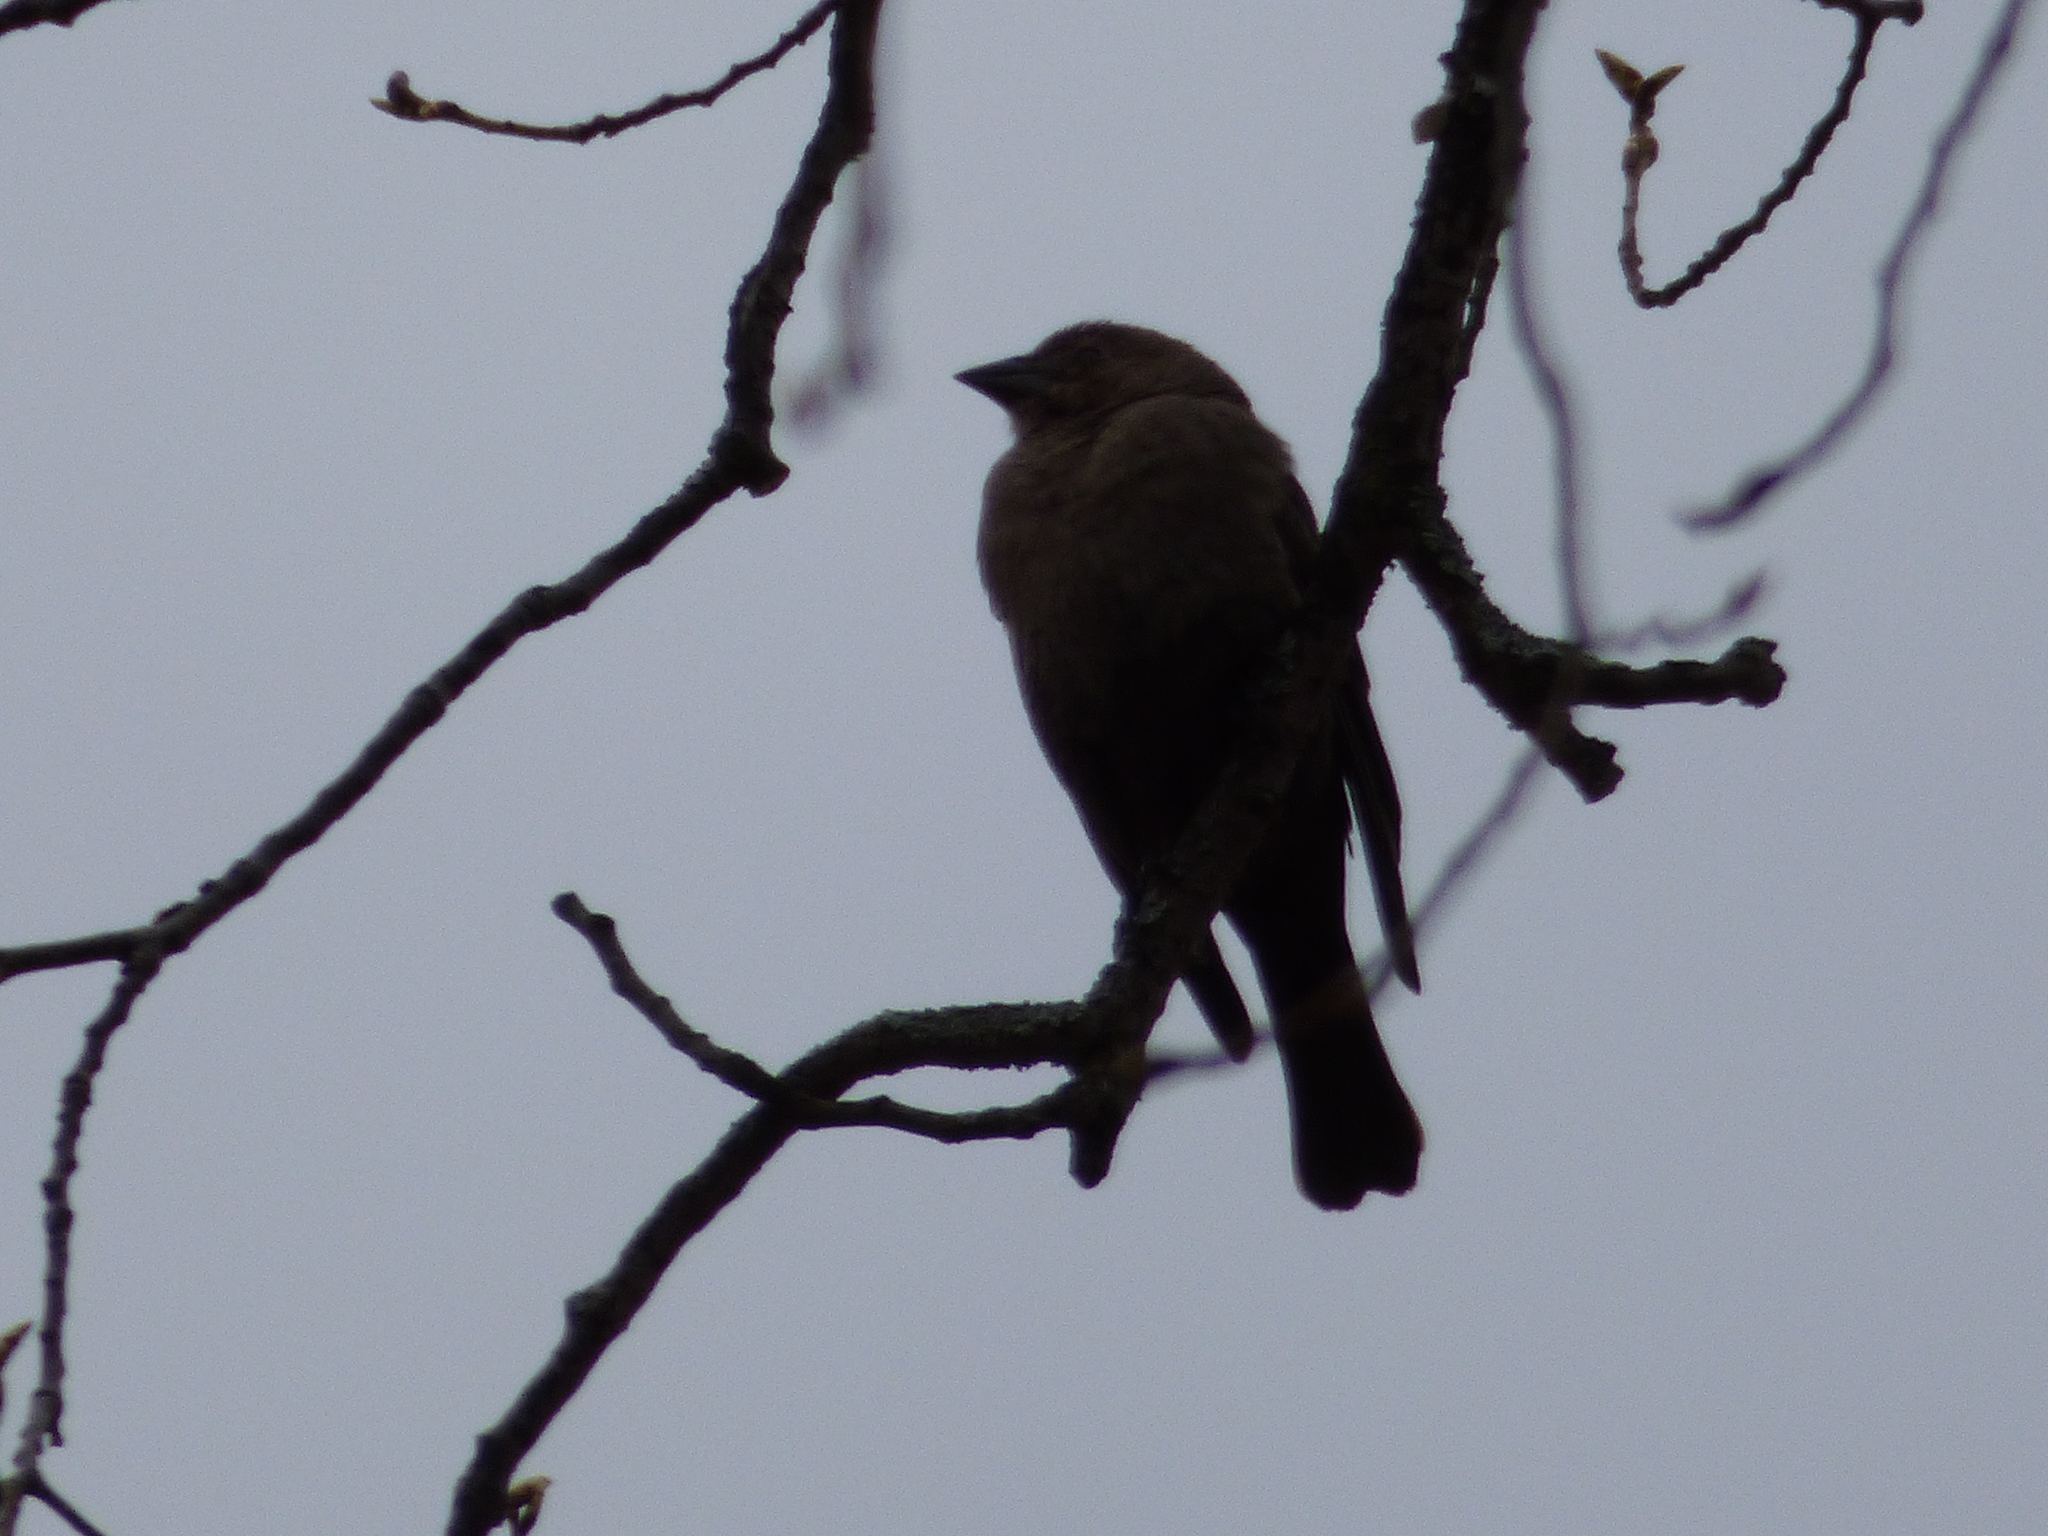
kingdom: Animalia
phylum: Chordata
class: Aves
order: Passeriformes
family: Icteridae
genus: Molothrus
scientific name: Molothrus ater
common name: Brown-headed cowbird
